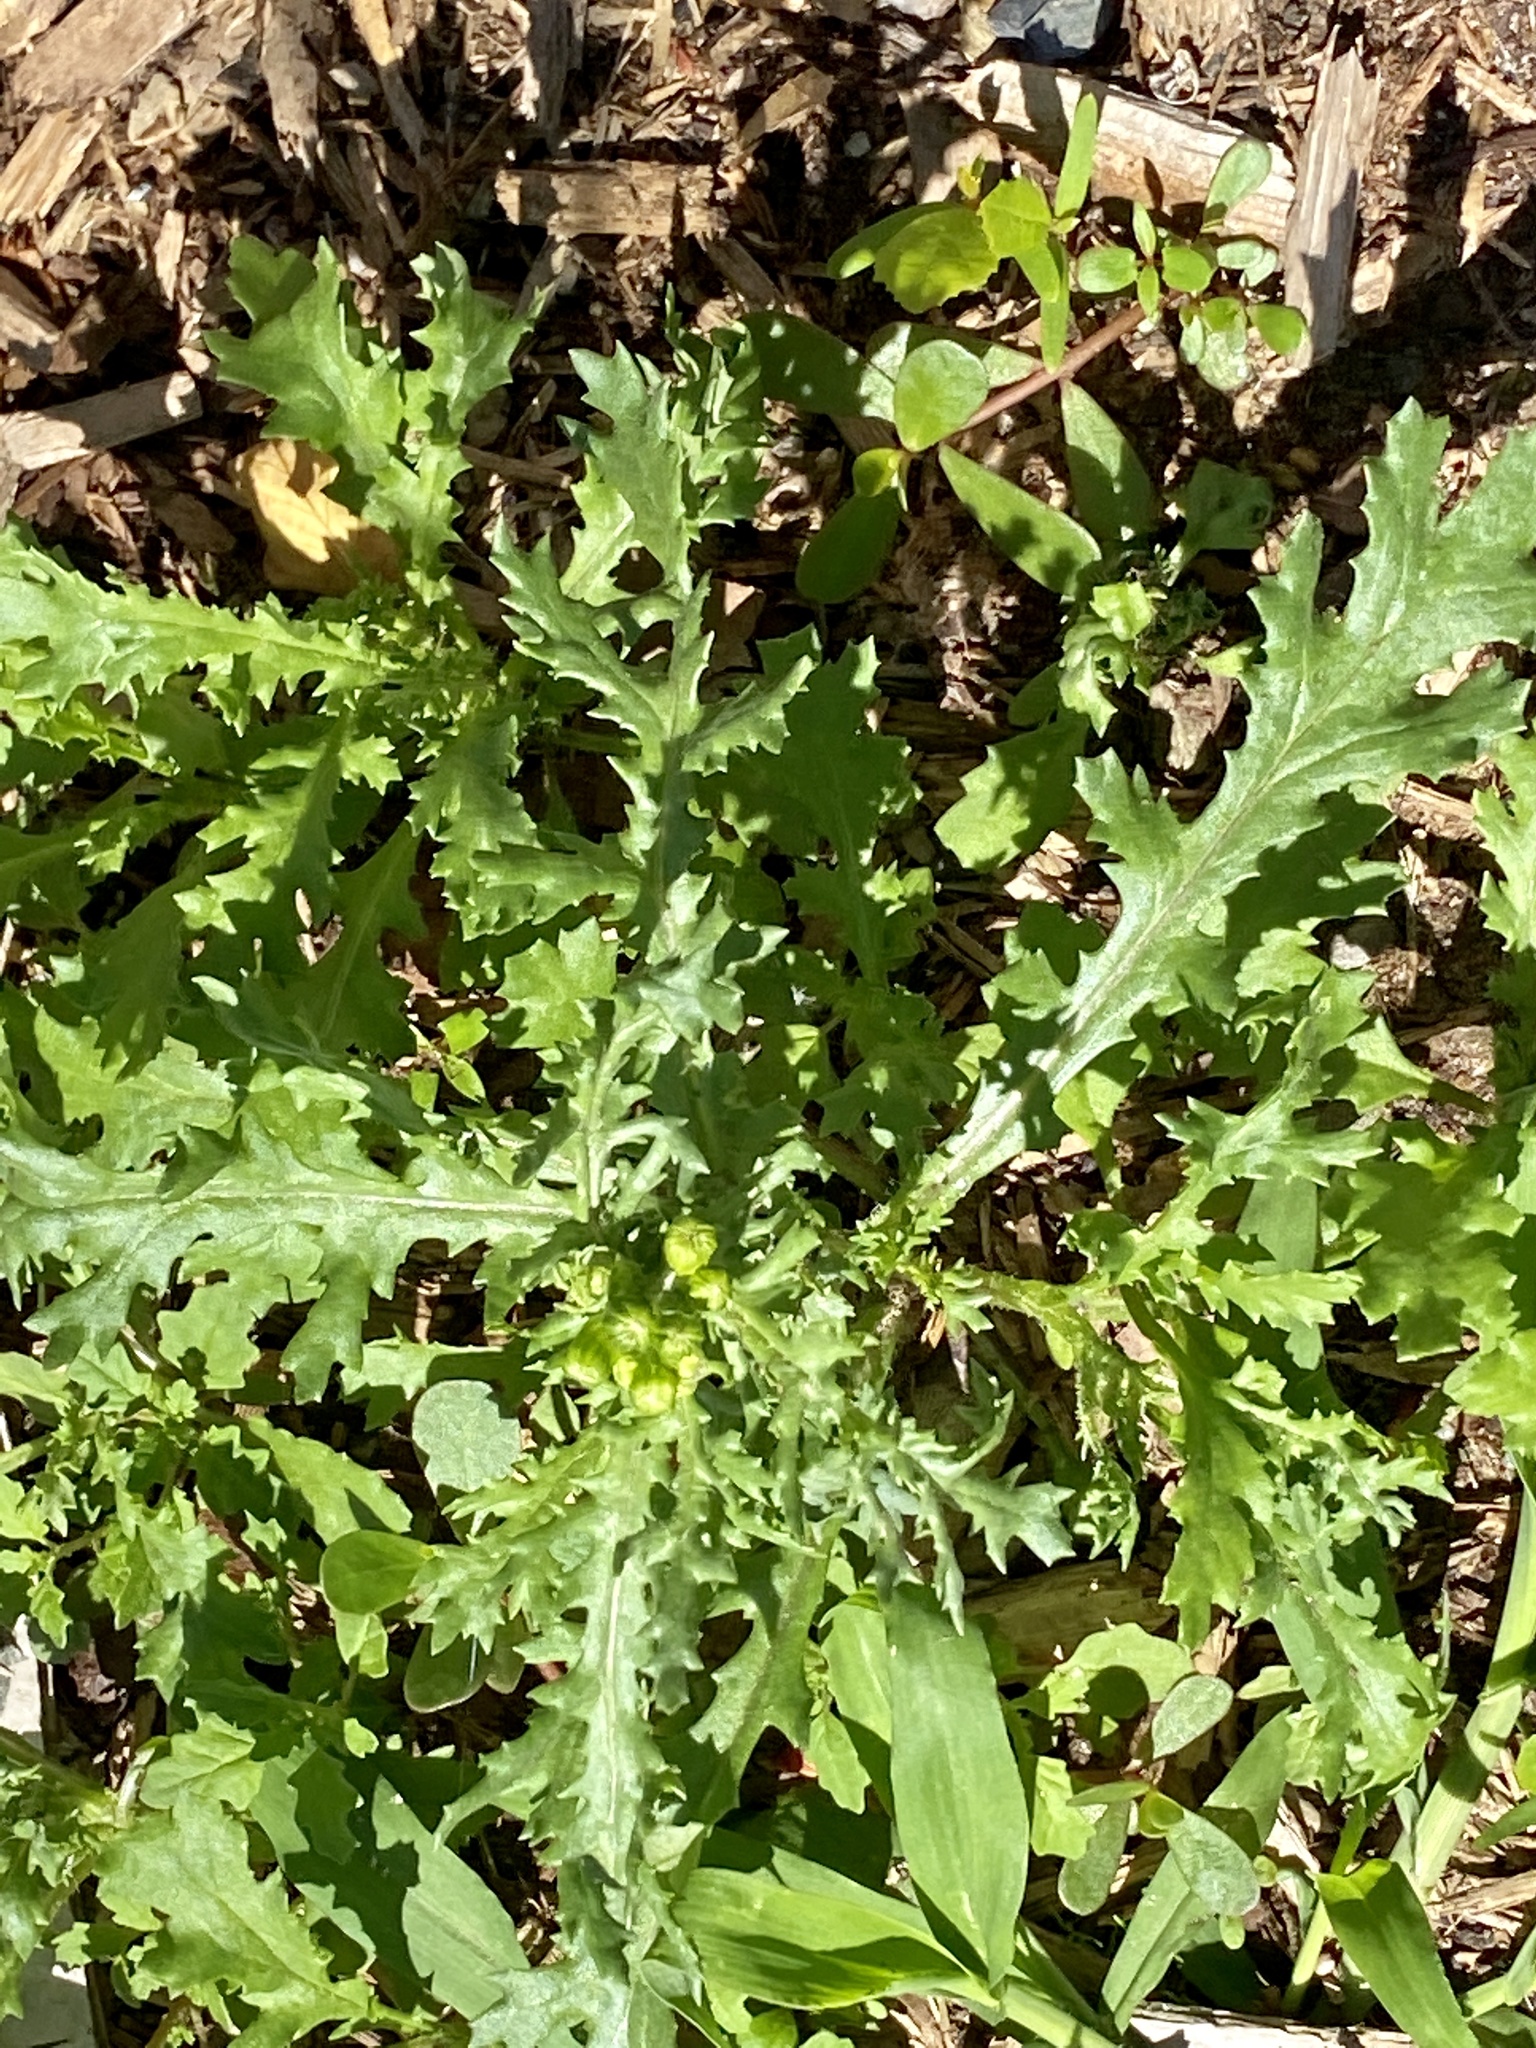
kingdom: Plantae
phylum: Tracheophyta
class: Magnoliopsida
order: Asterales
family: Asteraceae
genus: Senecio
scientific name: Senecio vulgaris
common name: Old-man-in-the-spring
